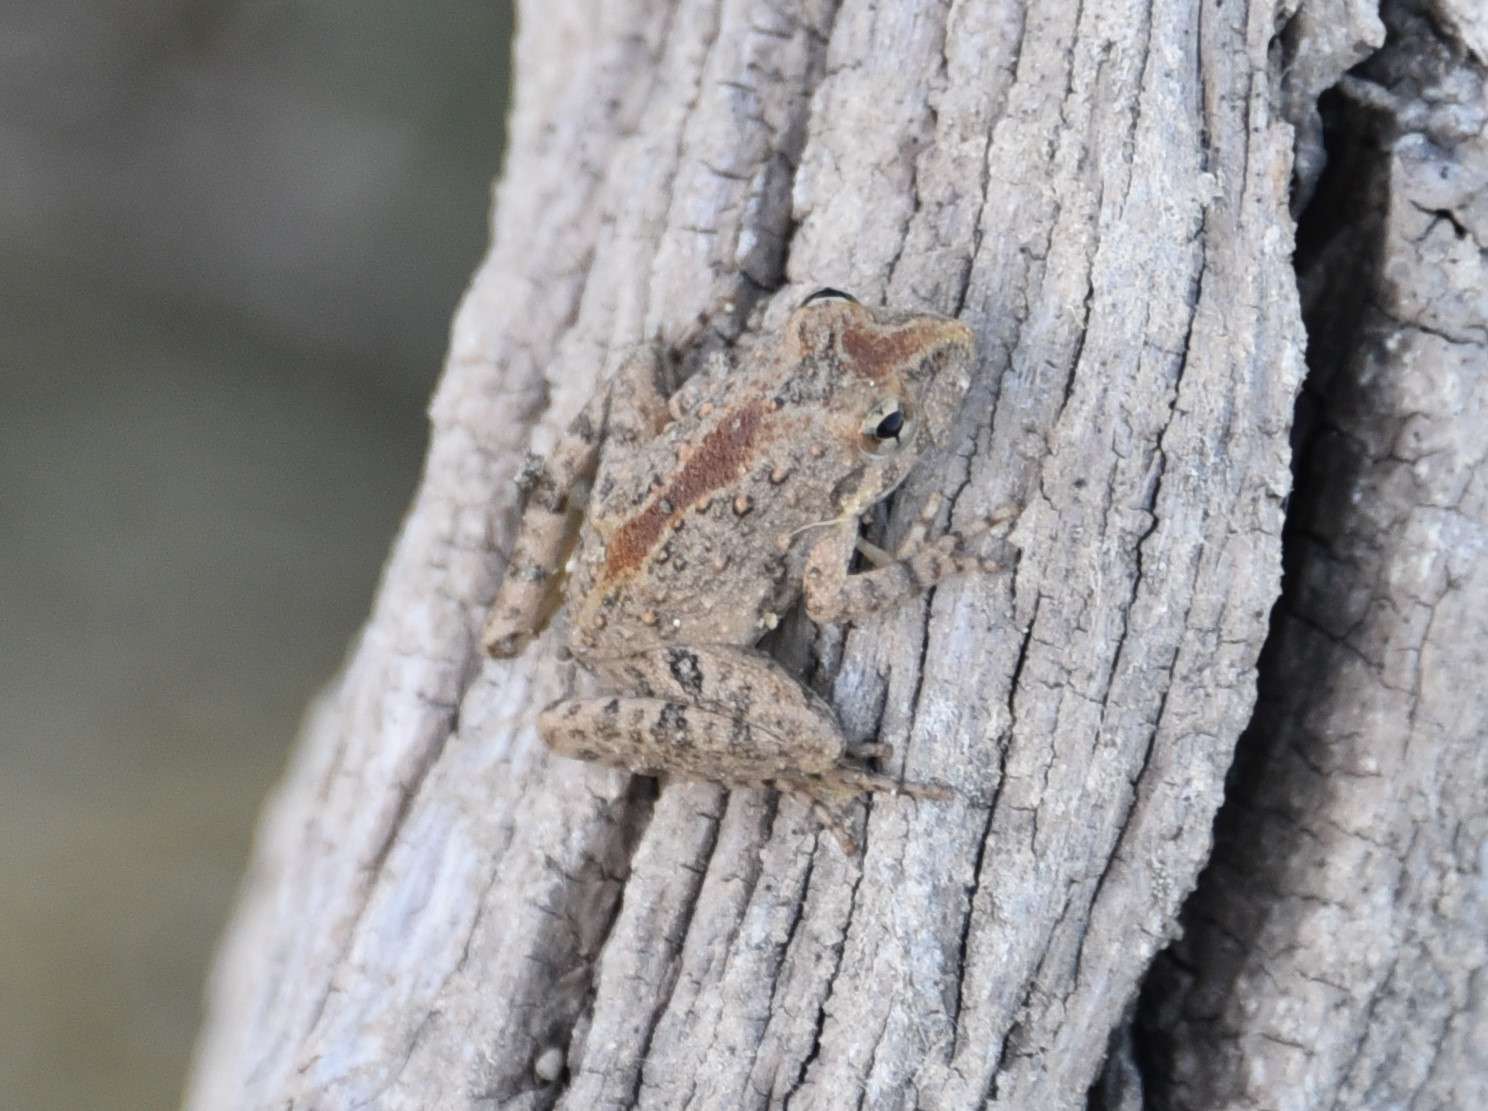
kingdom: Animalia
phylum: Chordata
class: Amphibia
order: Anura
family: Hylidae
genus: Acris
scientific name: Acris blanchardi
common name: Blanchard's cricket frog
